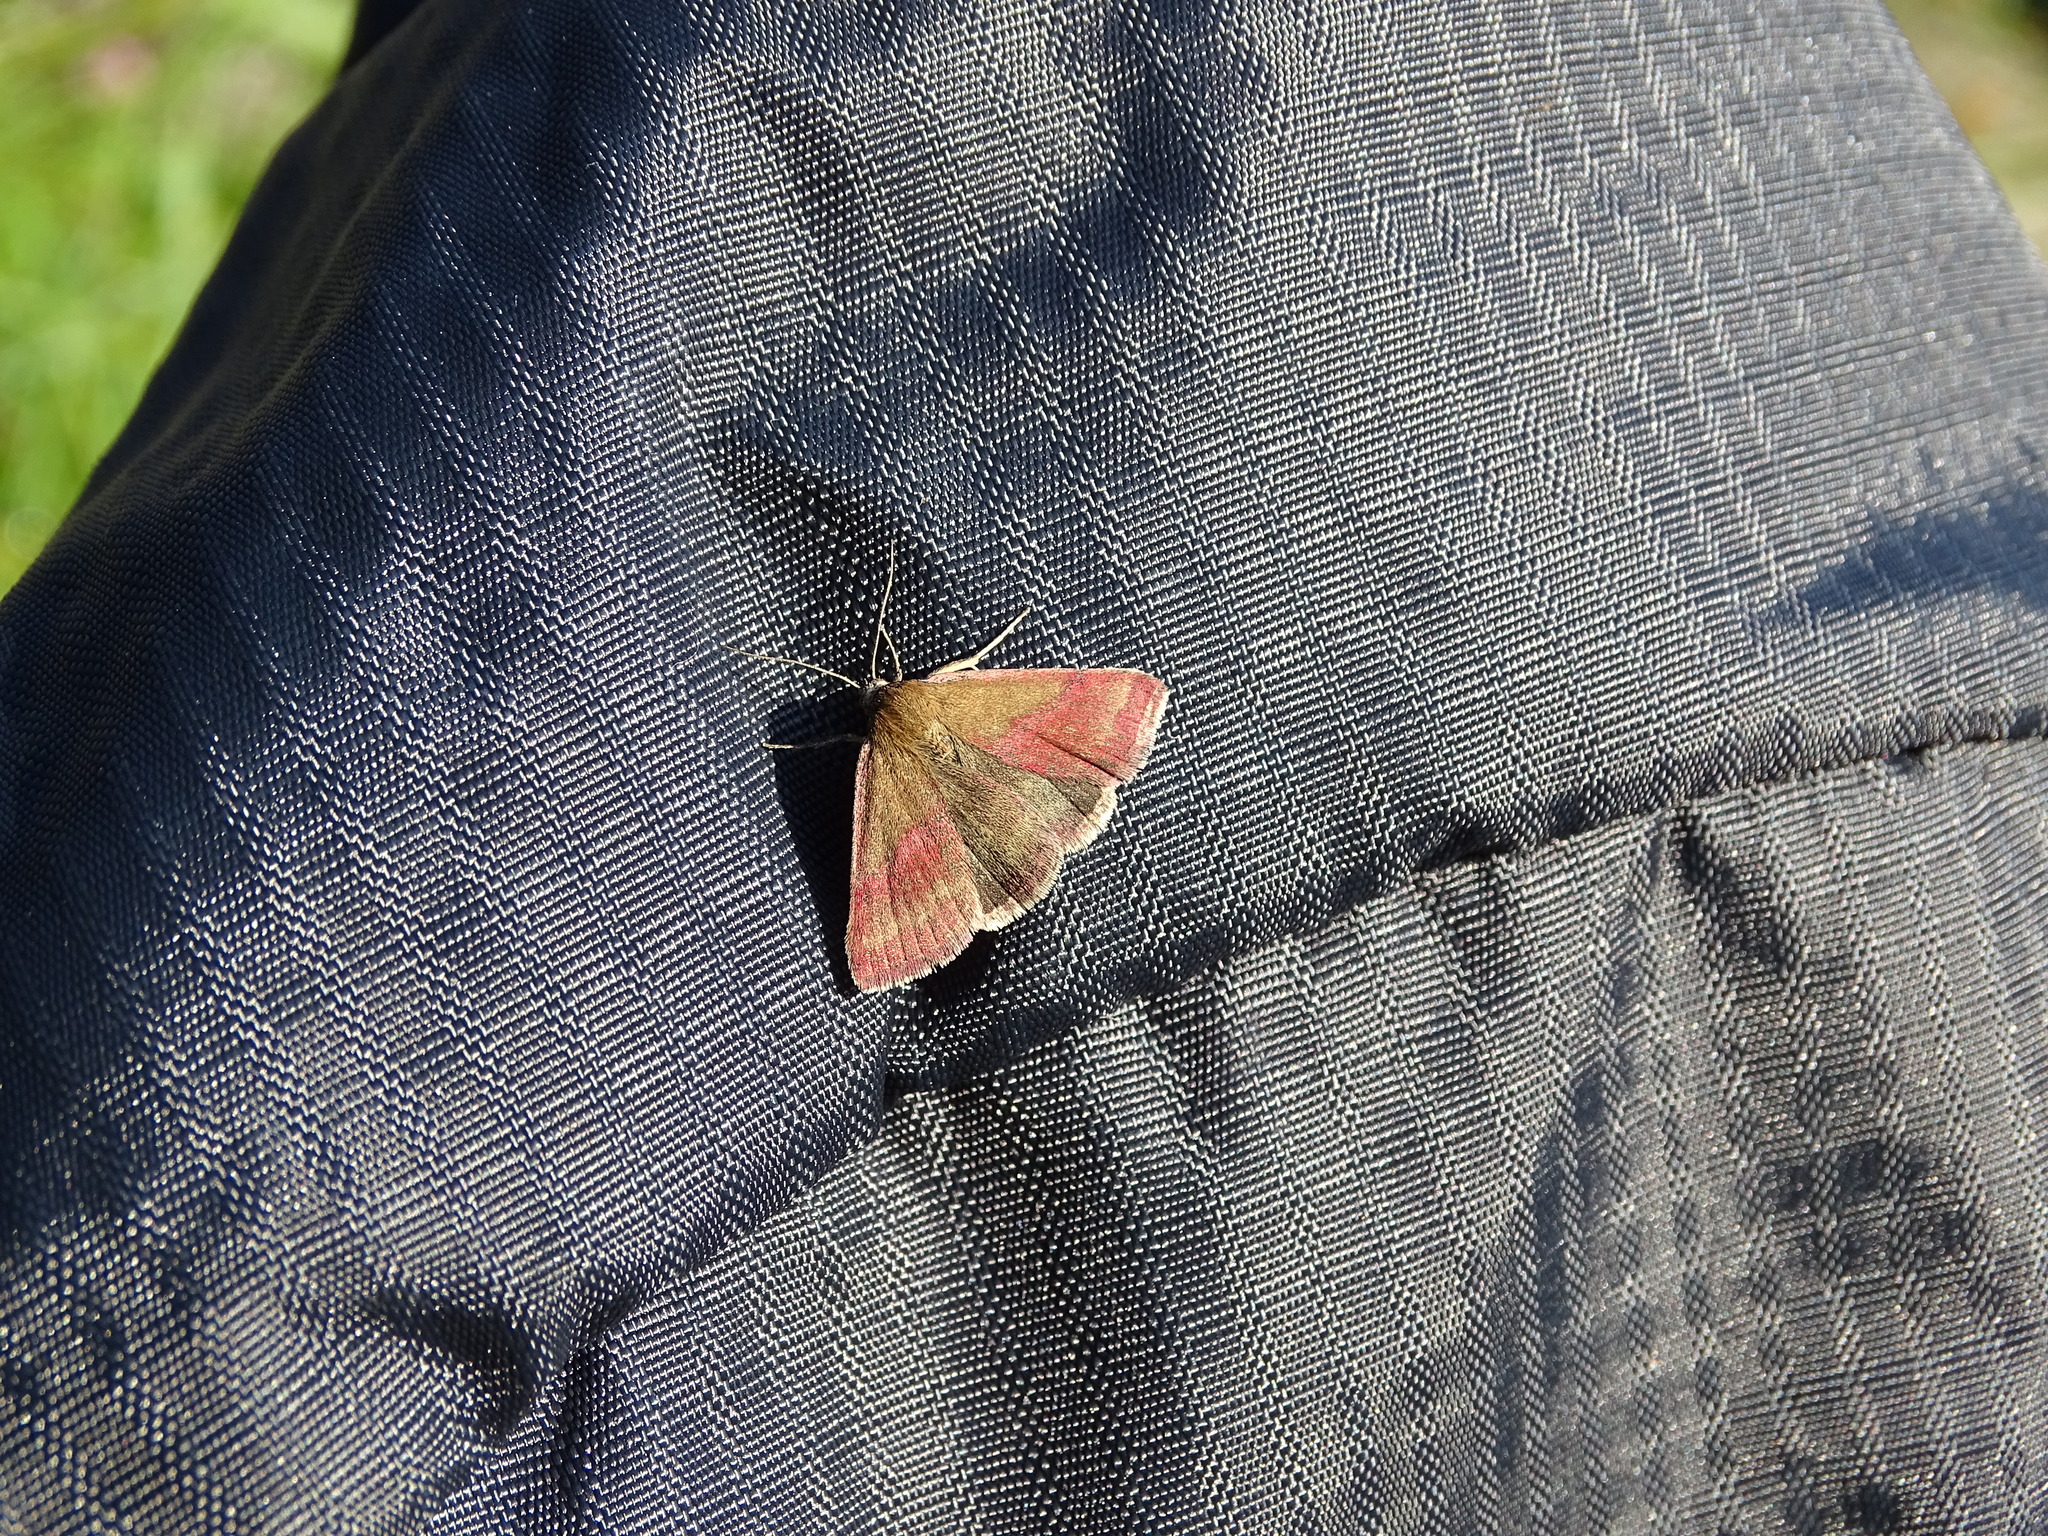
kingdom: Animalia
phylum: Arthropoda
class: Insecta
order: Lepidoptera
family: Erebidae
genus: Phytometra
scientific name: Phytometra viridaria
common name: Small purple-barred
